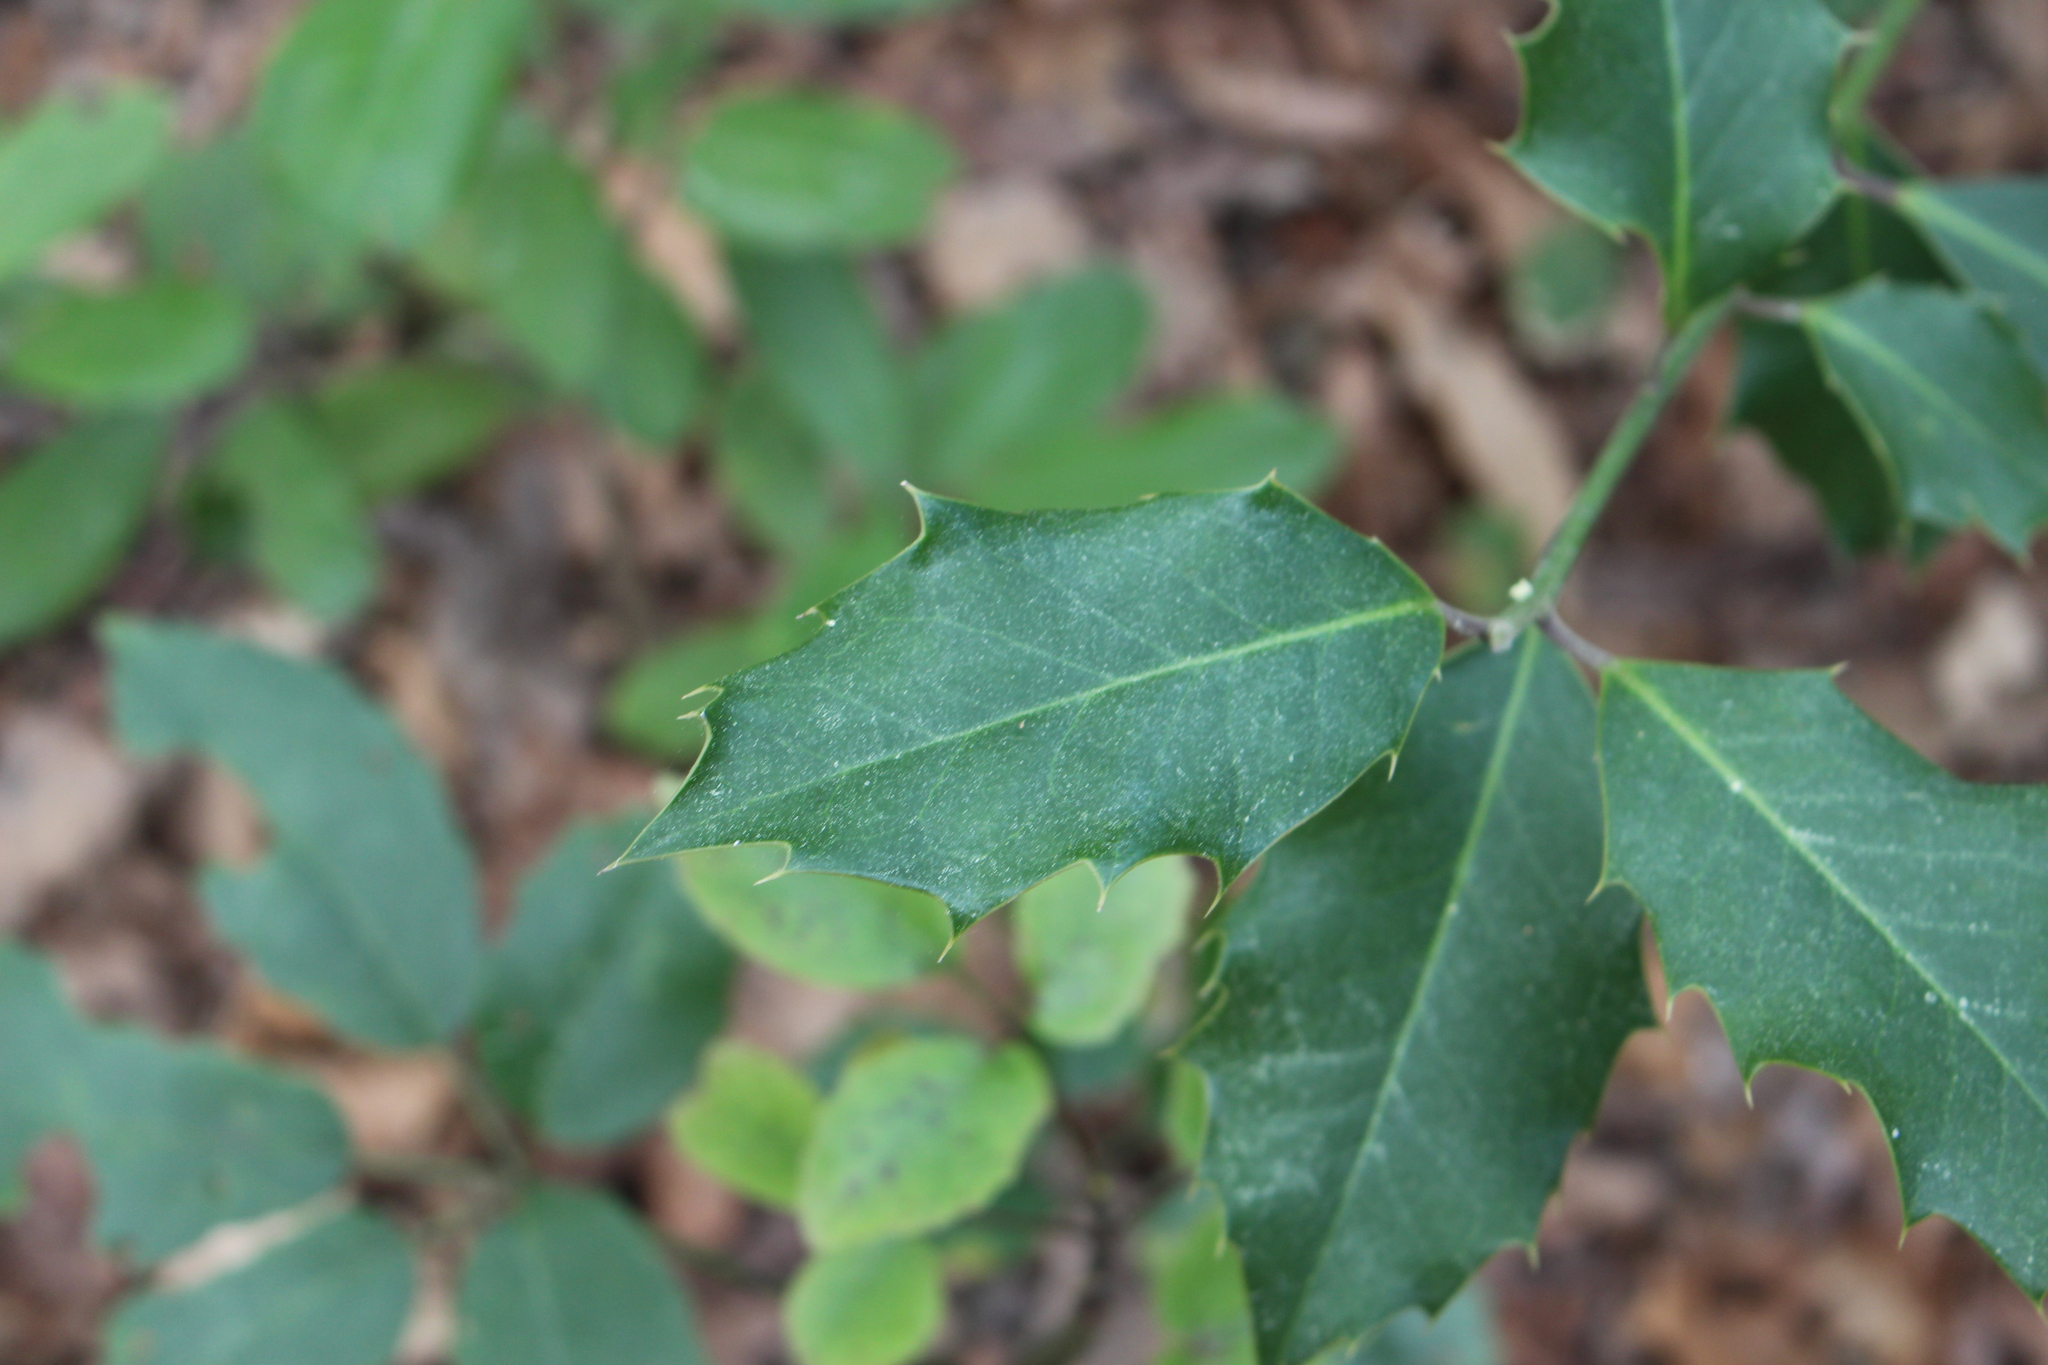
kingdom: Plantae
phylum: Tracheophyta
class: Magnoliopsida
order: Aquifoliales
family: Aquifoliaceae
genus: Ilex
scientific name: Ilex aquifolium
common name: English holly
